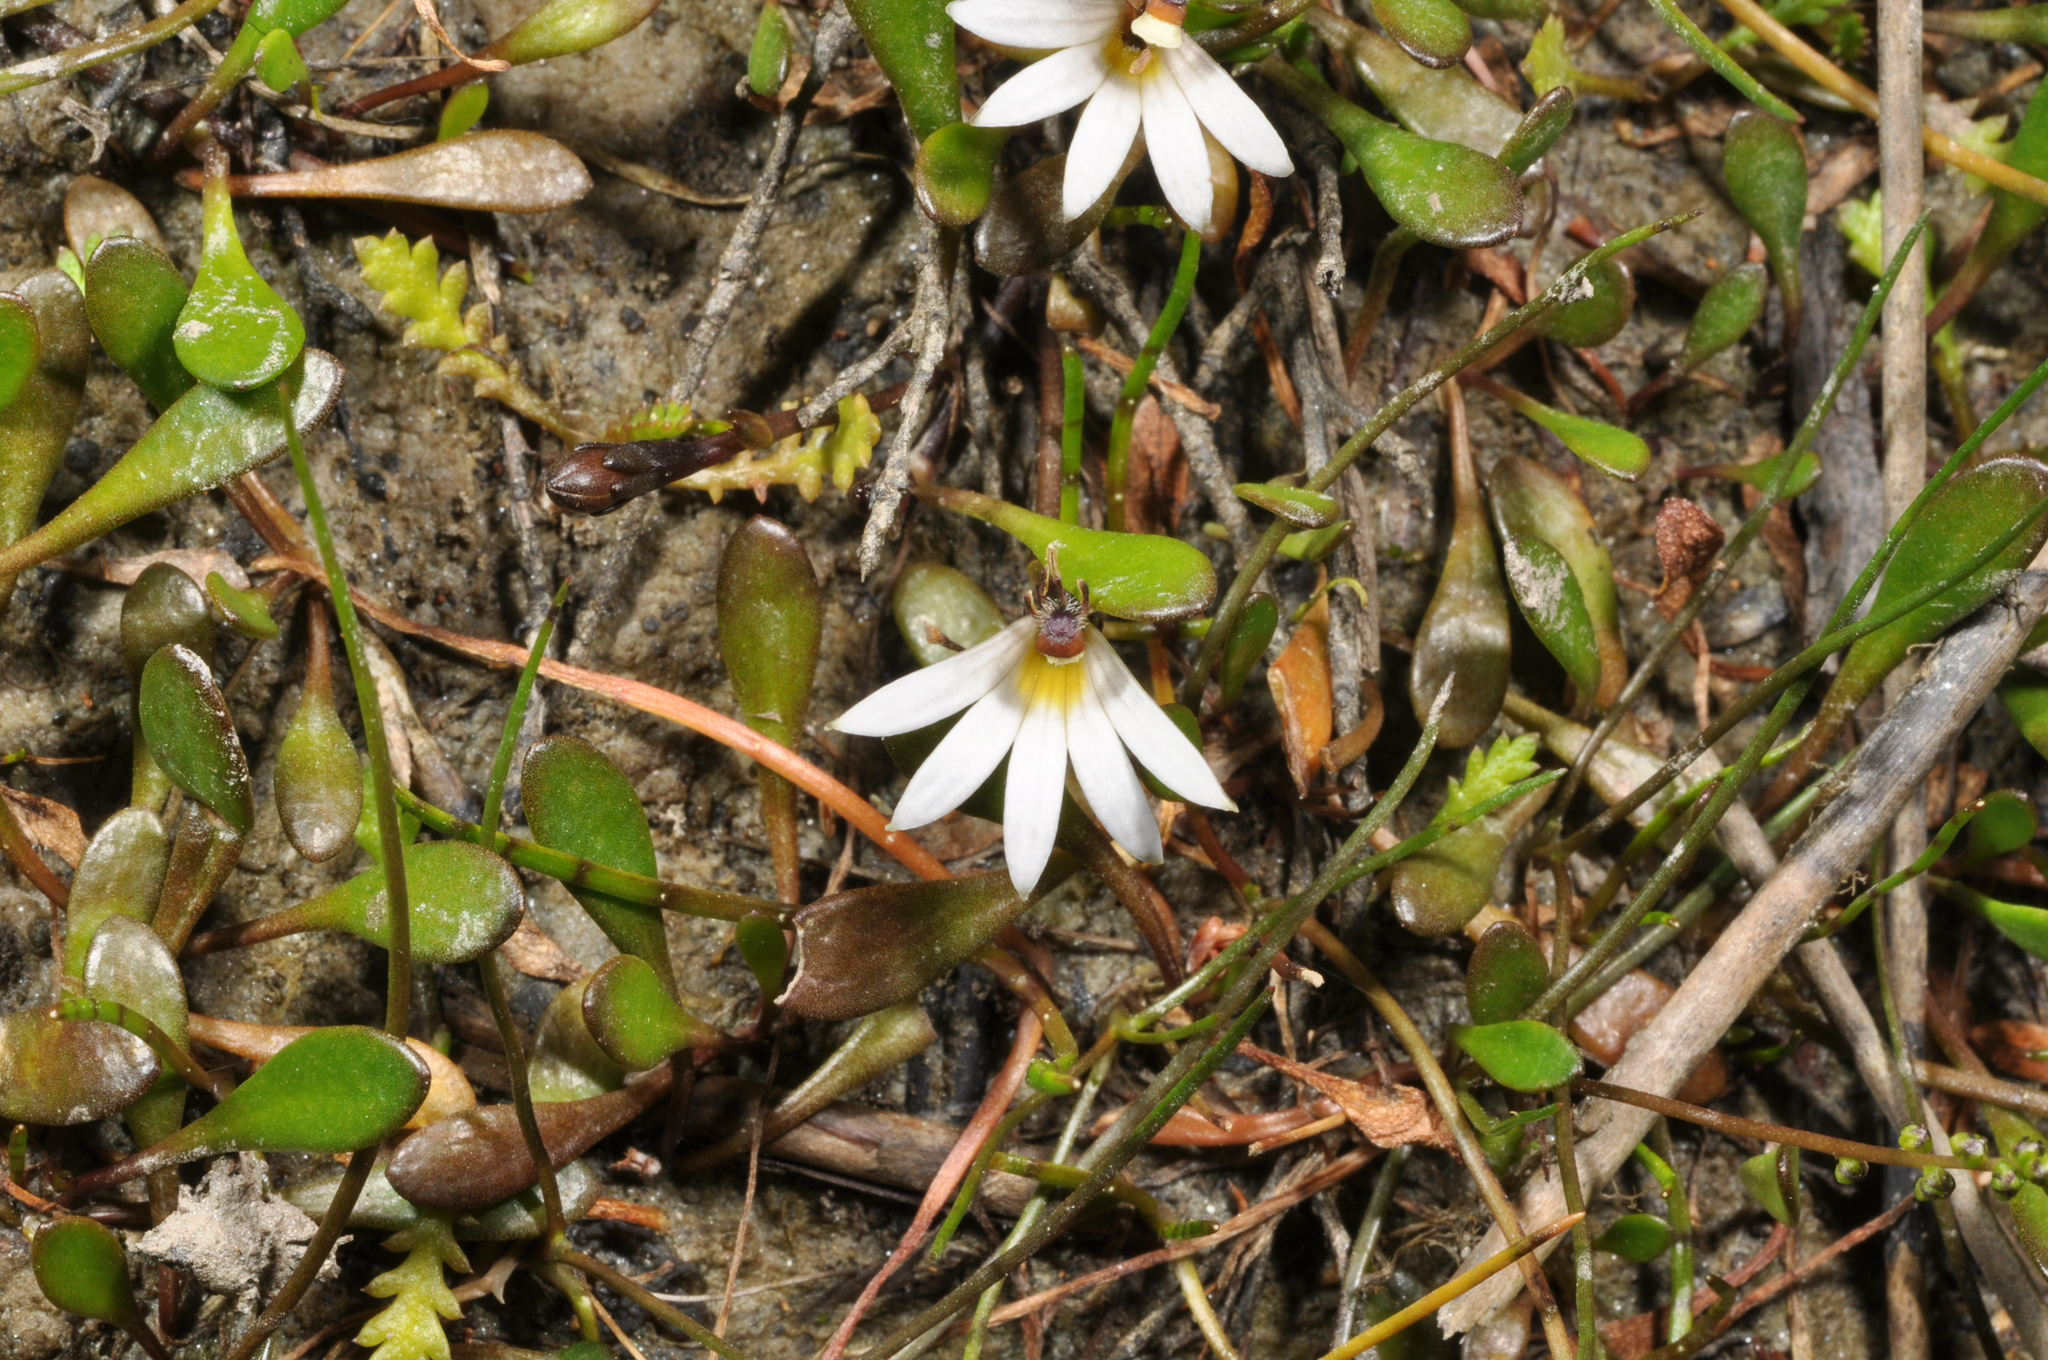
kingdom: Plantae
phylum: Tracheophyta
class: Magnoliopsida
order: Asterales
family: Goodeniaceae
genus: Goodenia
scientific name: Goodenia radicans
